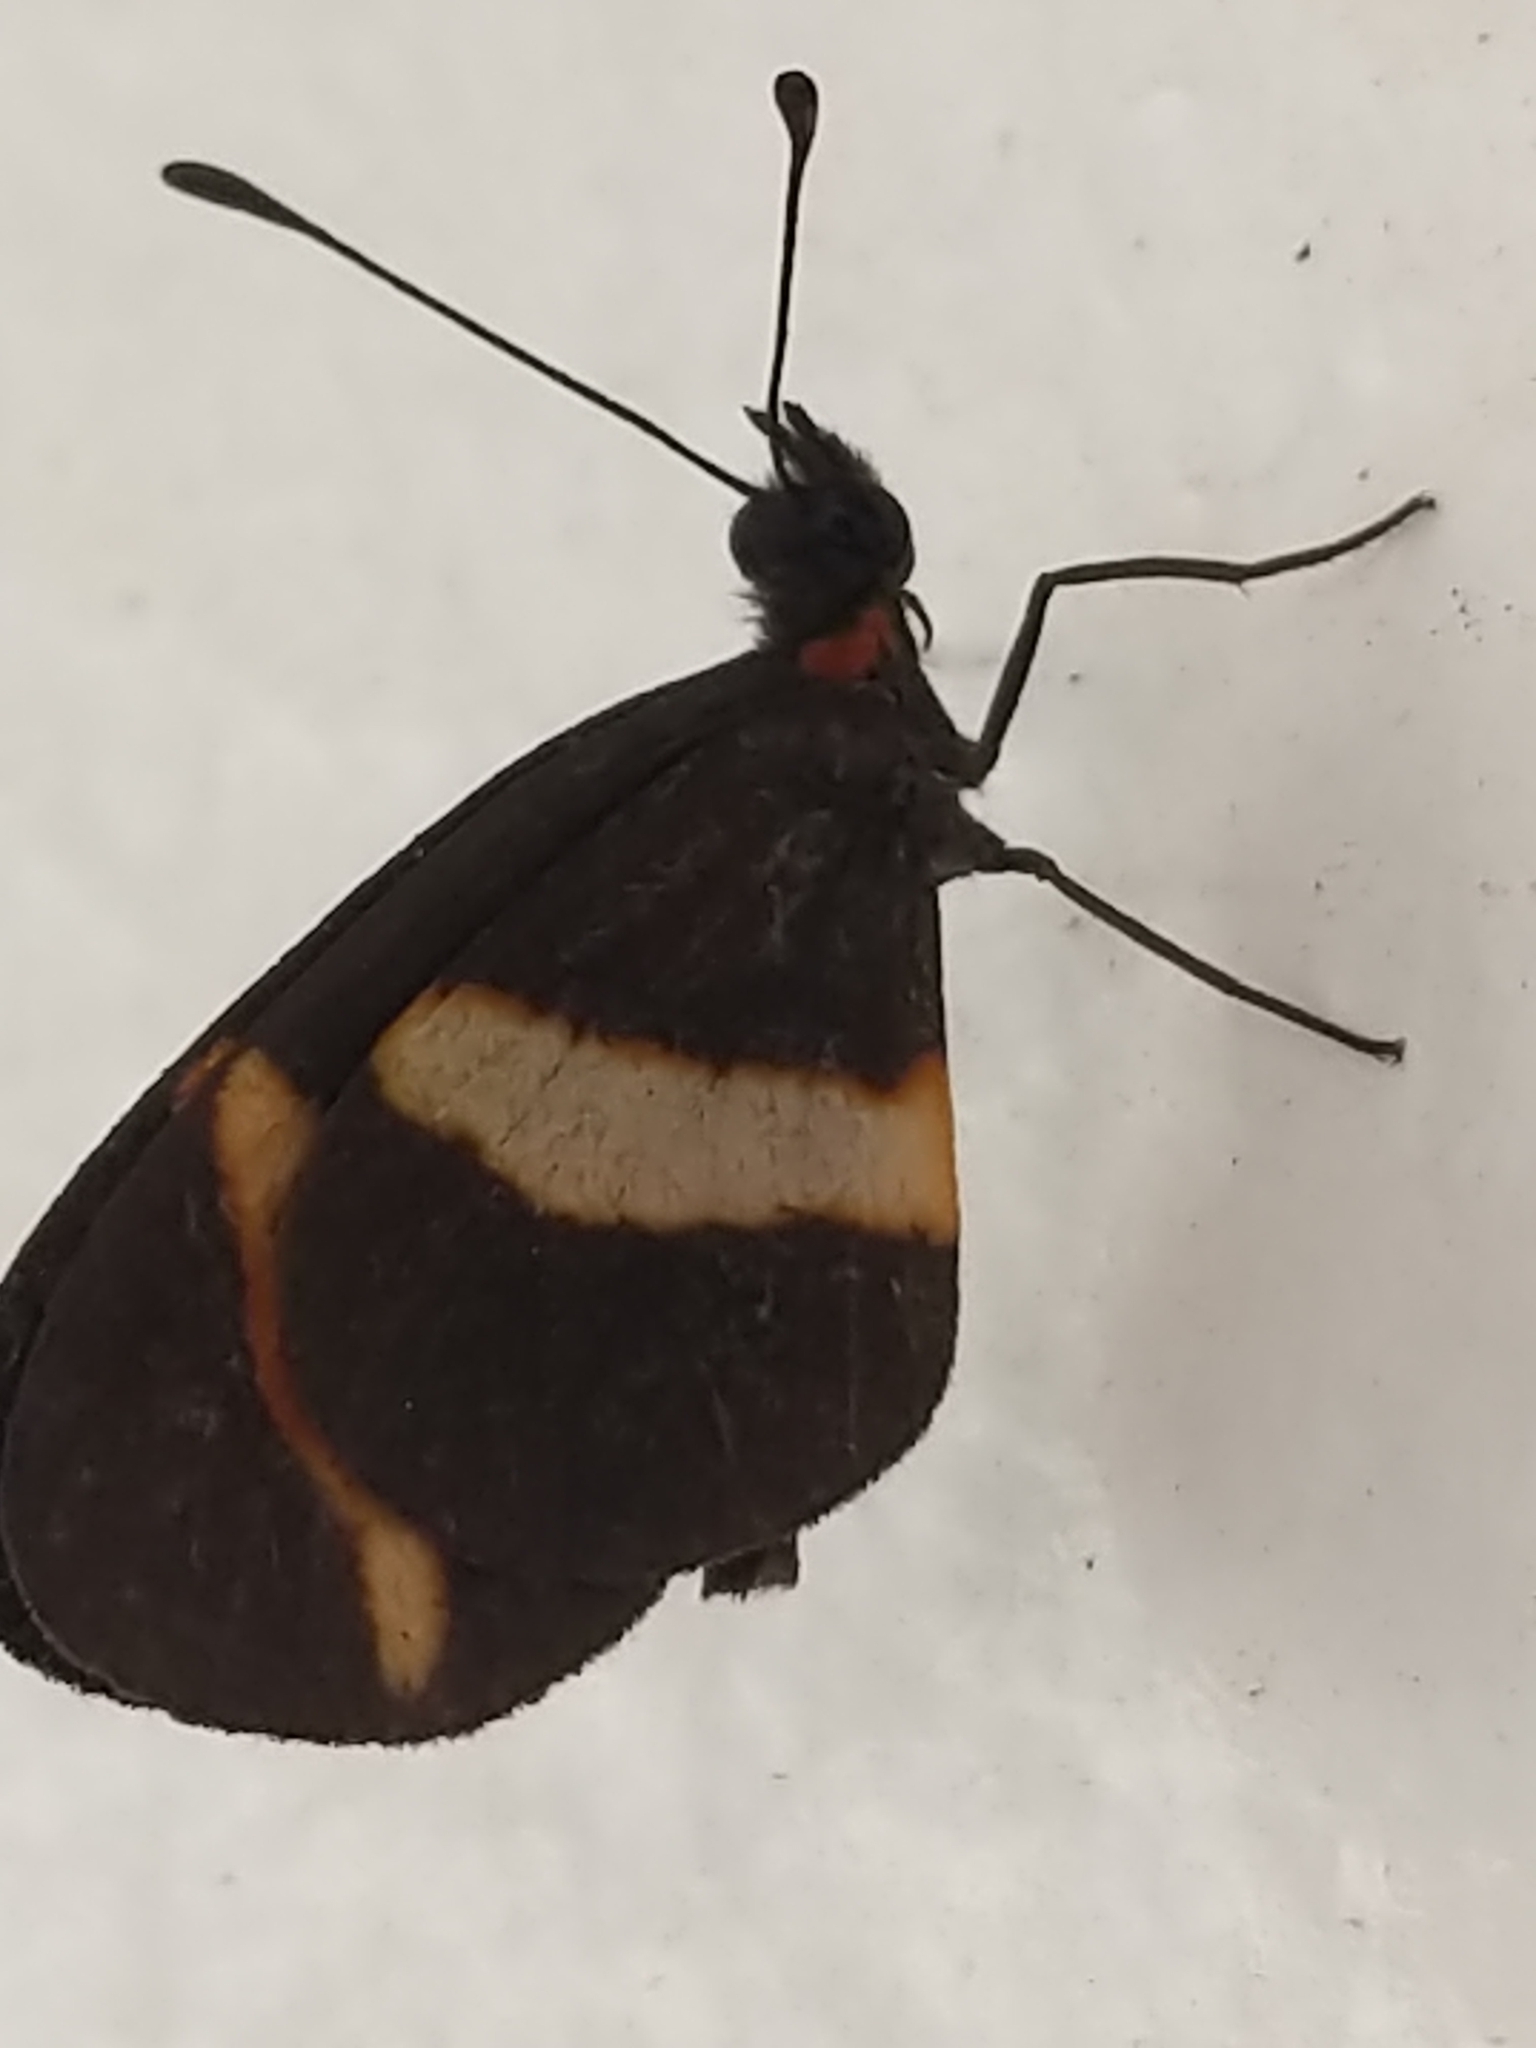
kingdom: Animalia
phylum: Arthropoda
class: Insecta
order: Lepidoptera
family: Nymphalidae
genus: Microtia
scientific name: Microtia elva
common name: Elf
